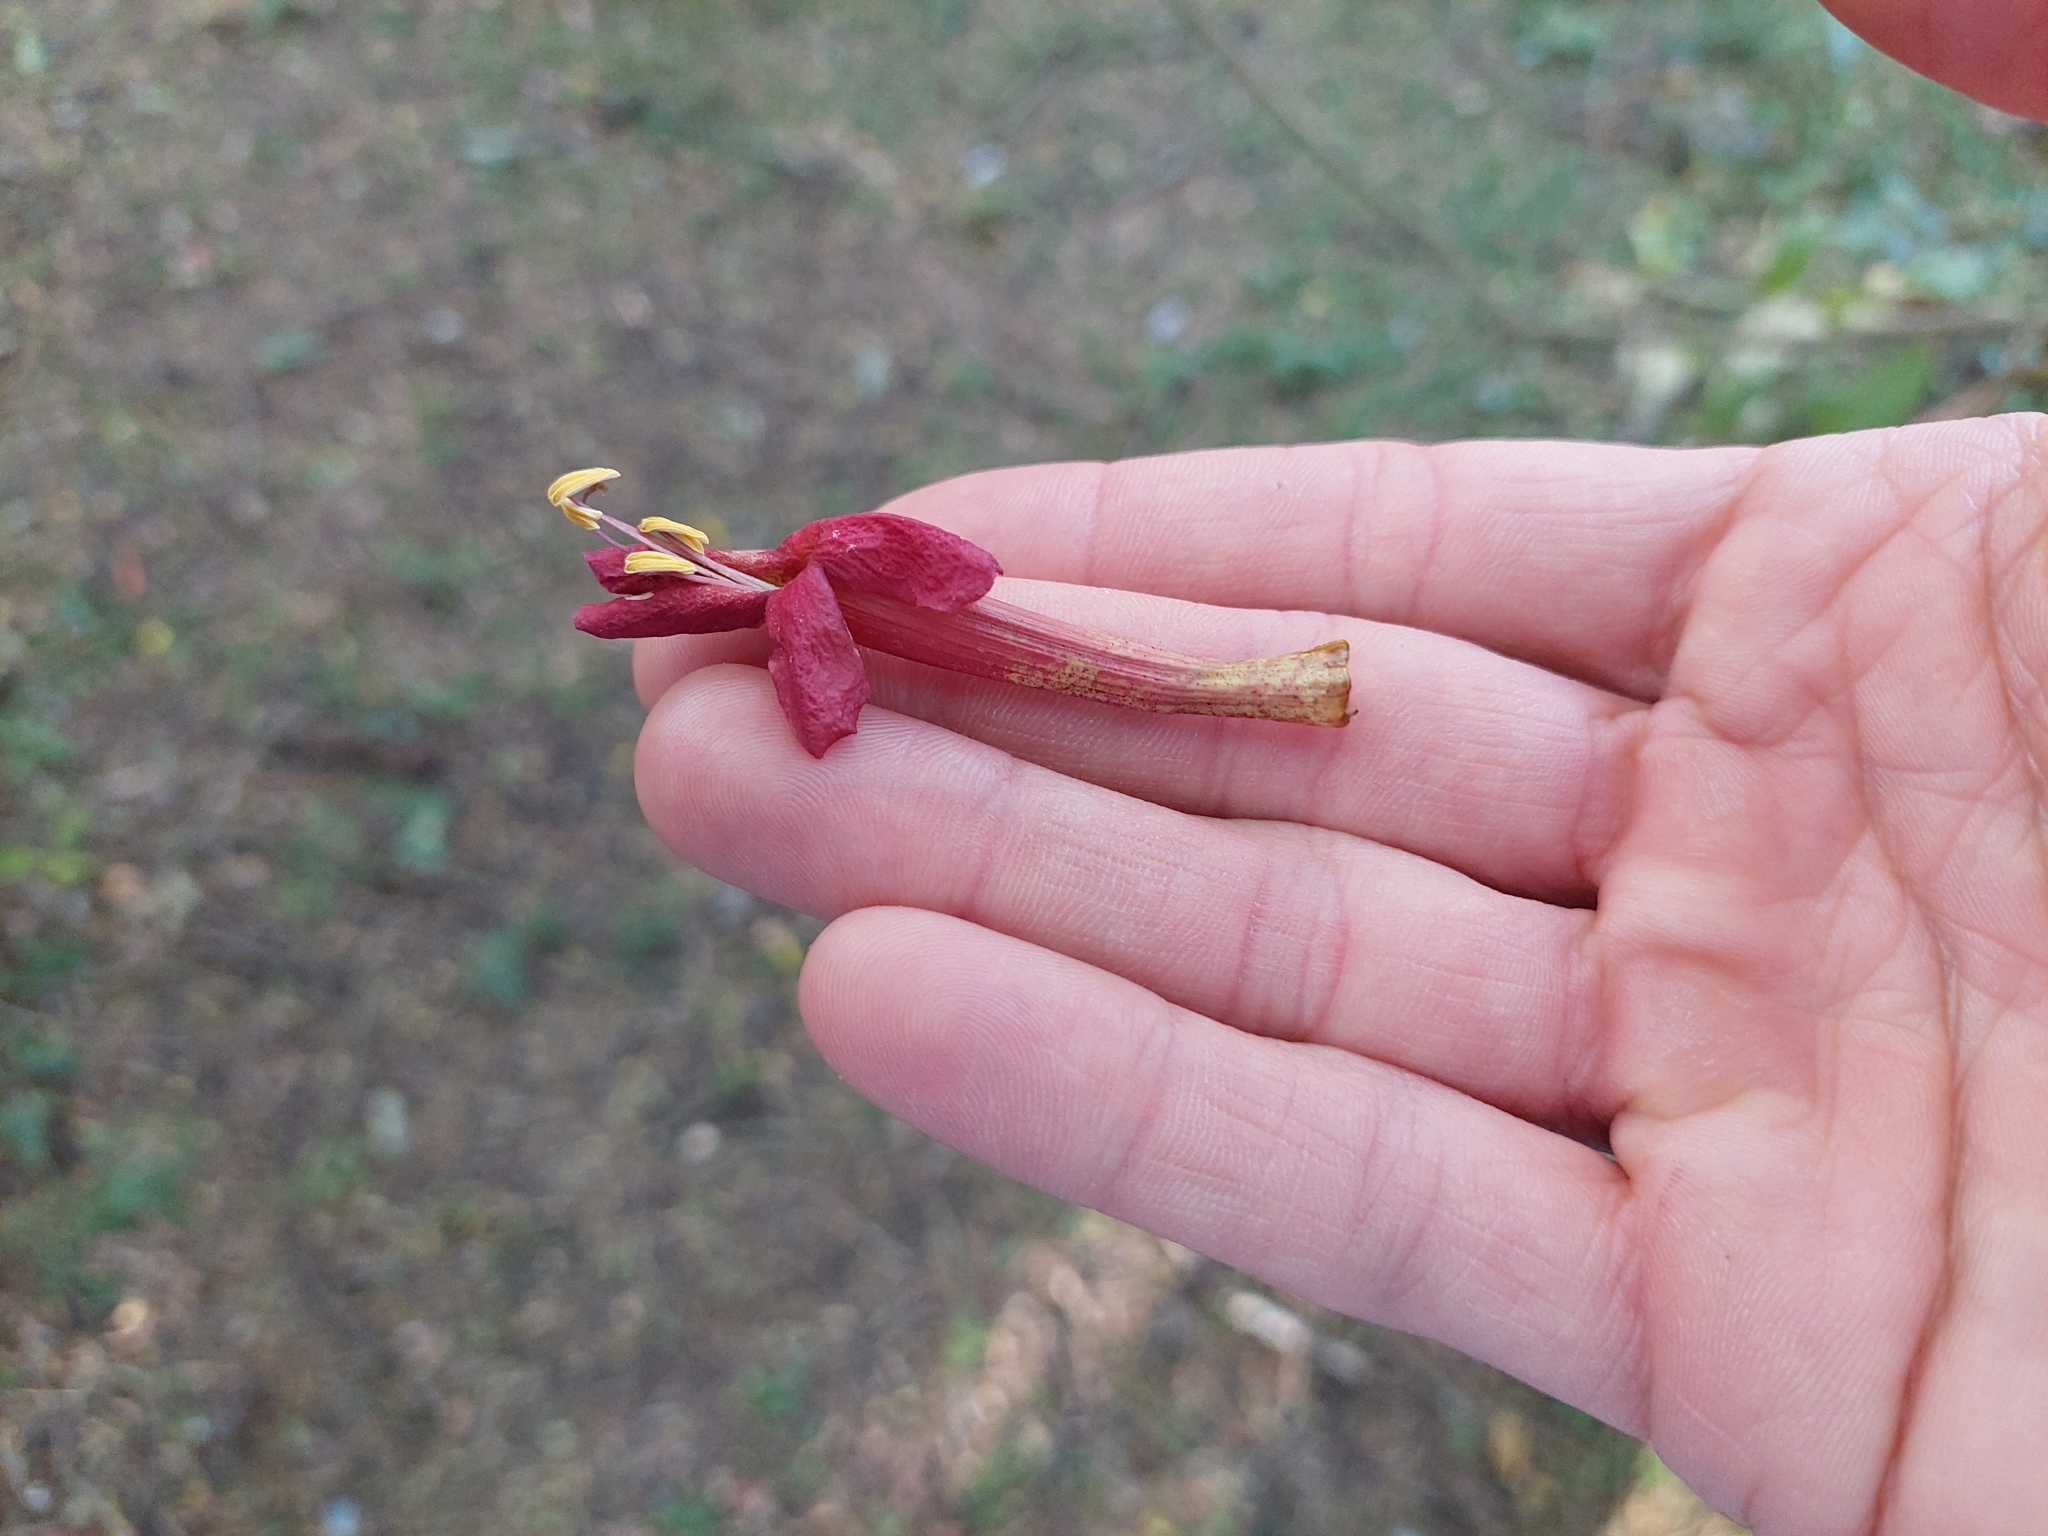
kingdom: Plantae
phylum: Tracheophyta
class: Magnoliopsida
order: Lamiales
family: Bignoniaceae
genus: Dolichandra
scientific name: Dolichandra cynanchoides
